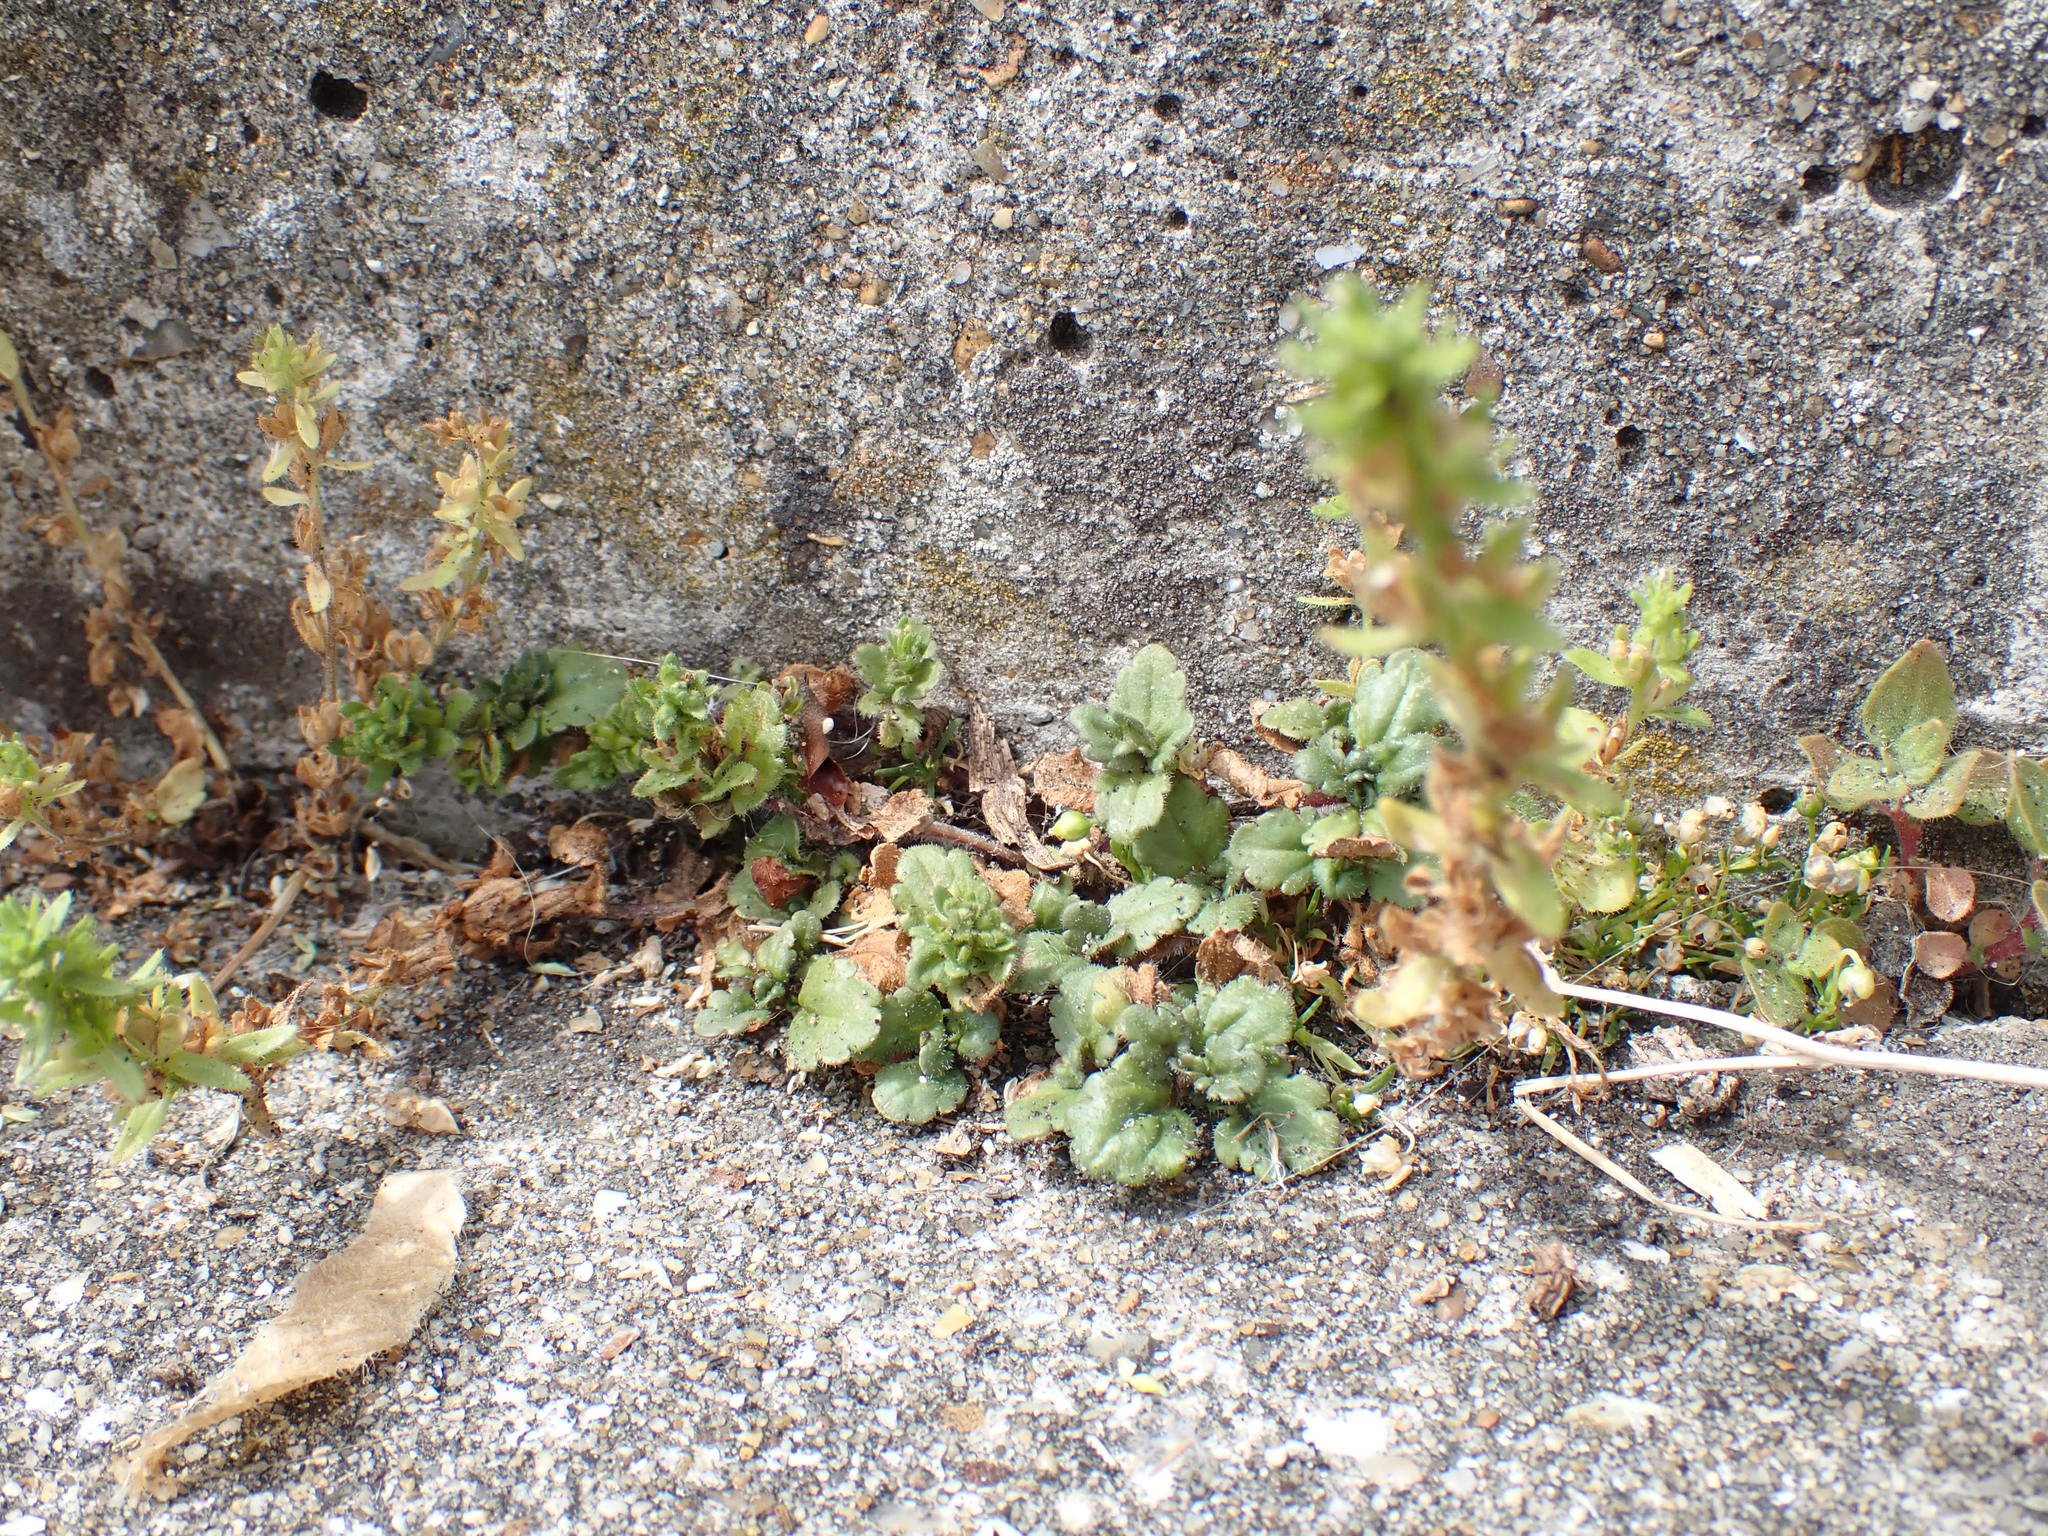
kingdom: Plantae
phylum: Tracheophyta
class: Magnoliopsida
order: Lamiales
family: Plantaginaceae
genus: Veronica
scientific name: Veronica arvensis
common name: Corn speedwell
